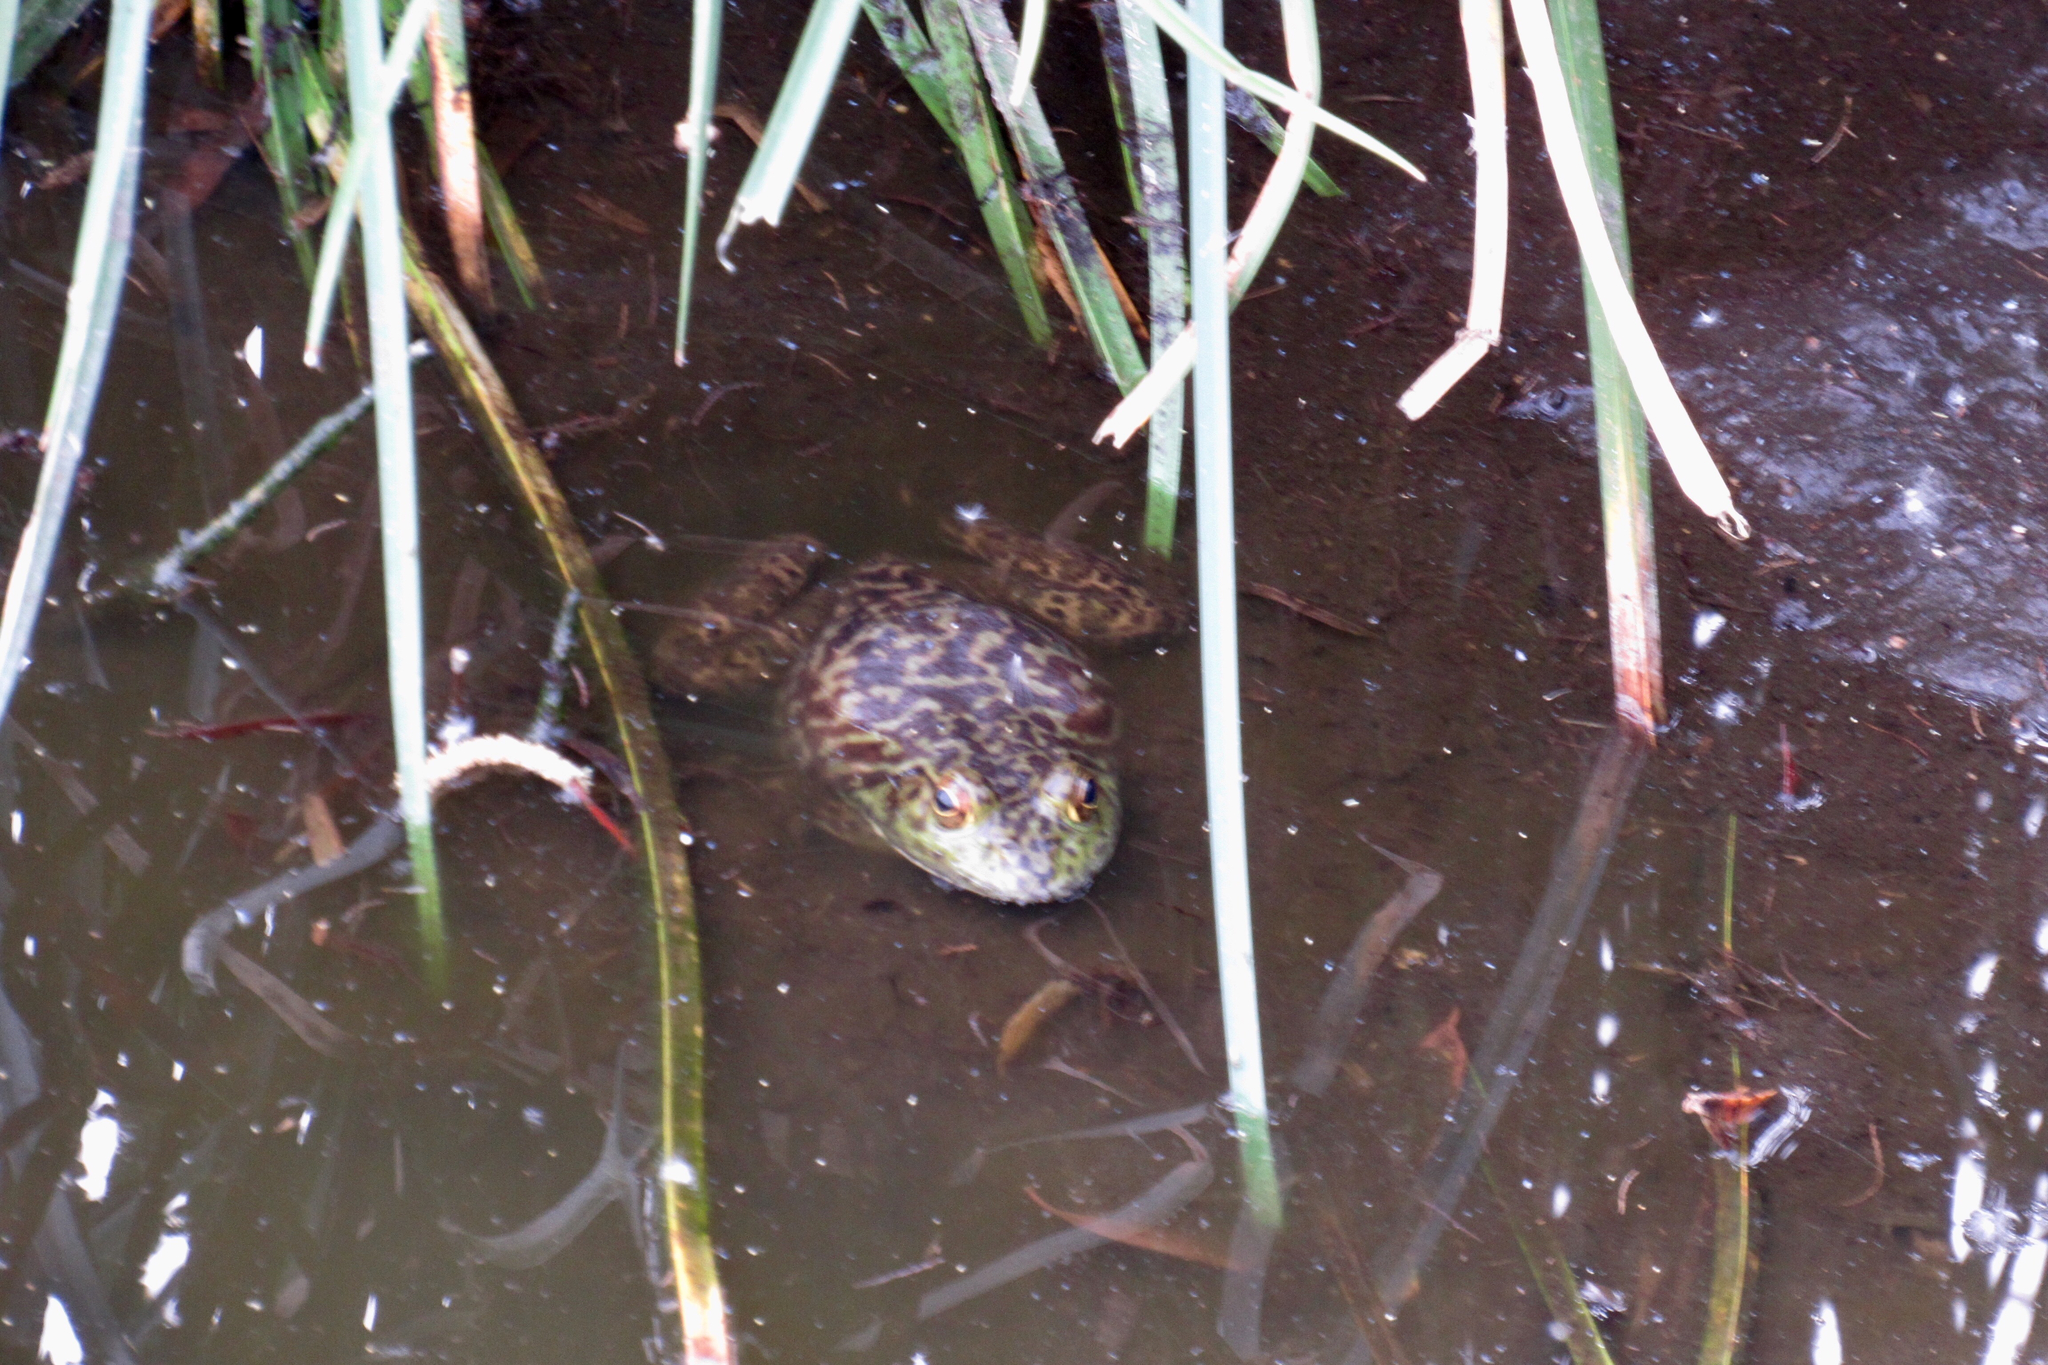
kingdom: Animalia
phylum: Chordata
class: Amphibia
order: Anura
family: Ranidae
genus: Lithobates
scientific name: Lithobates catesbeianus
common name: American bullfrog
